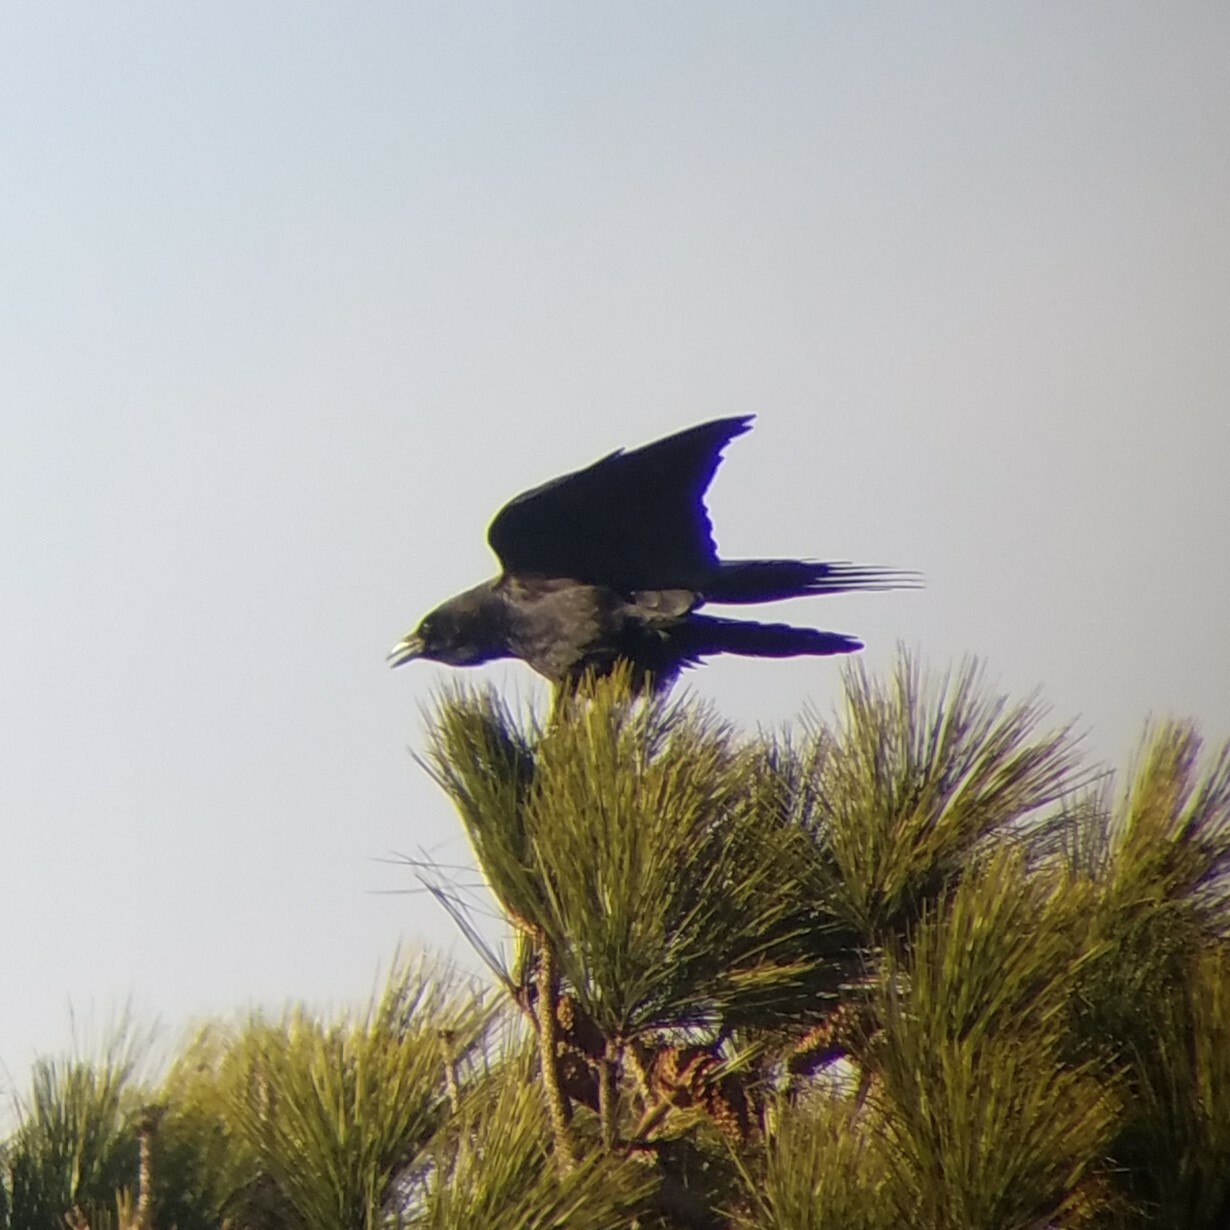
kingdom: Animalia
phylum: Chordata
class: Aves
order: Passeriformes
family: Corvidae
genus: Corvus
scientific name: Corvus brachyrhynchos
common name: American crow
